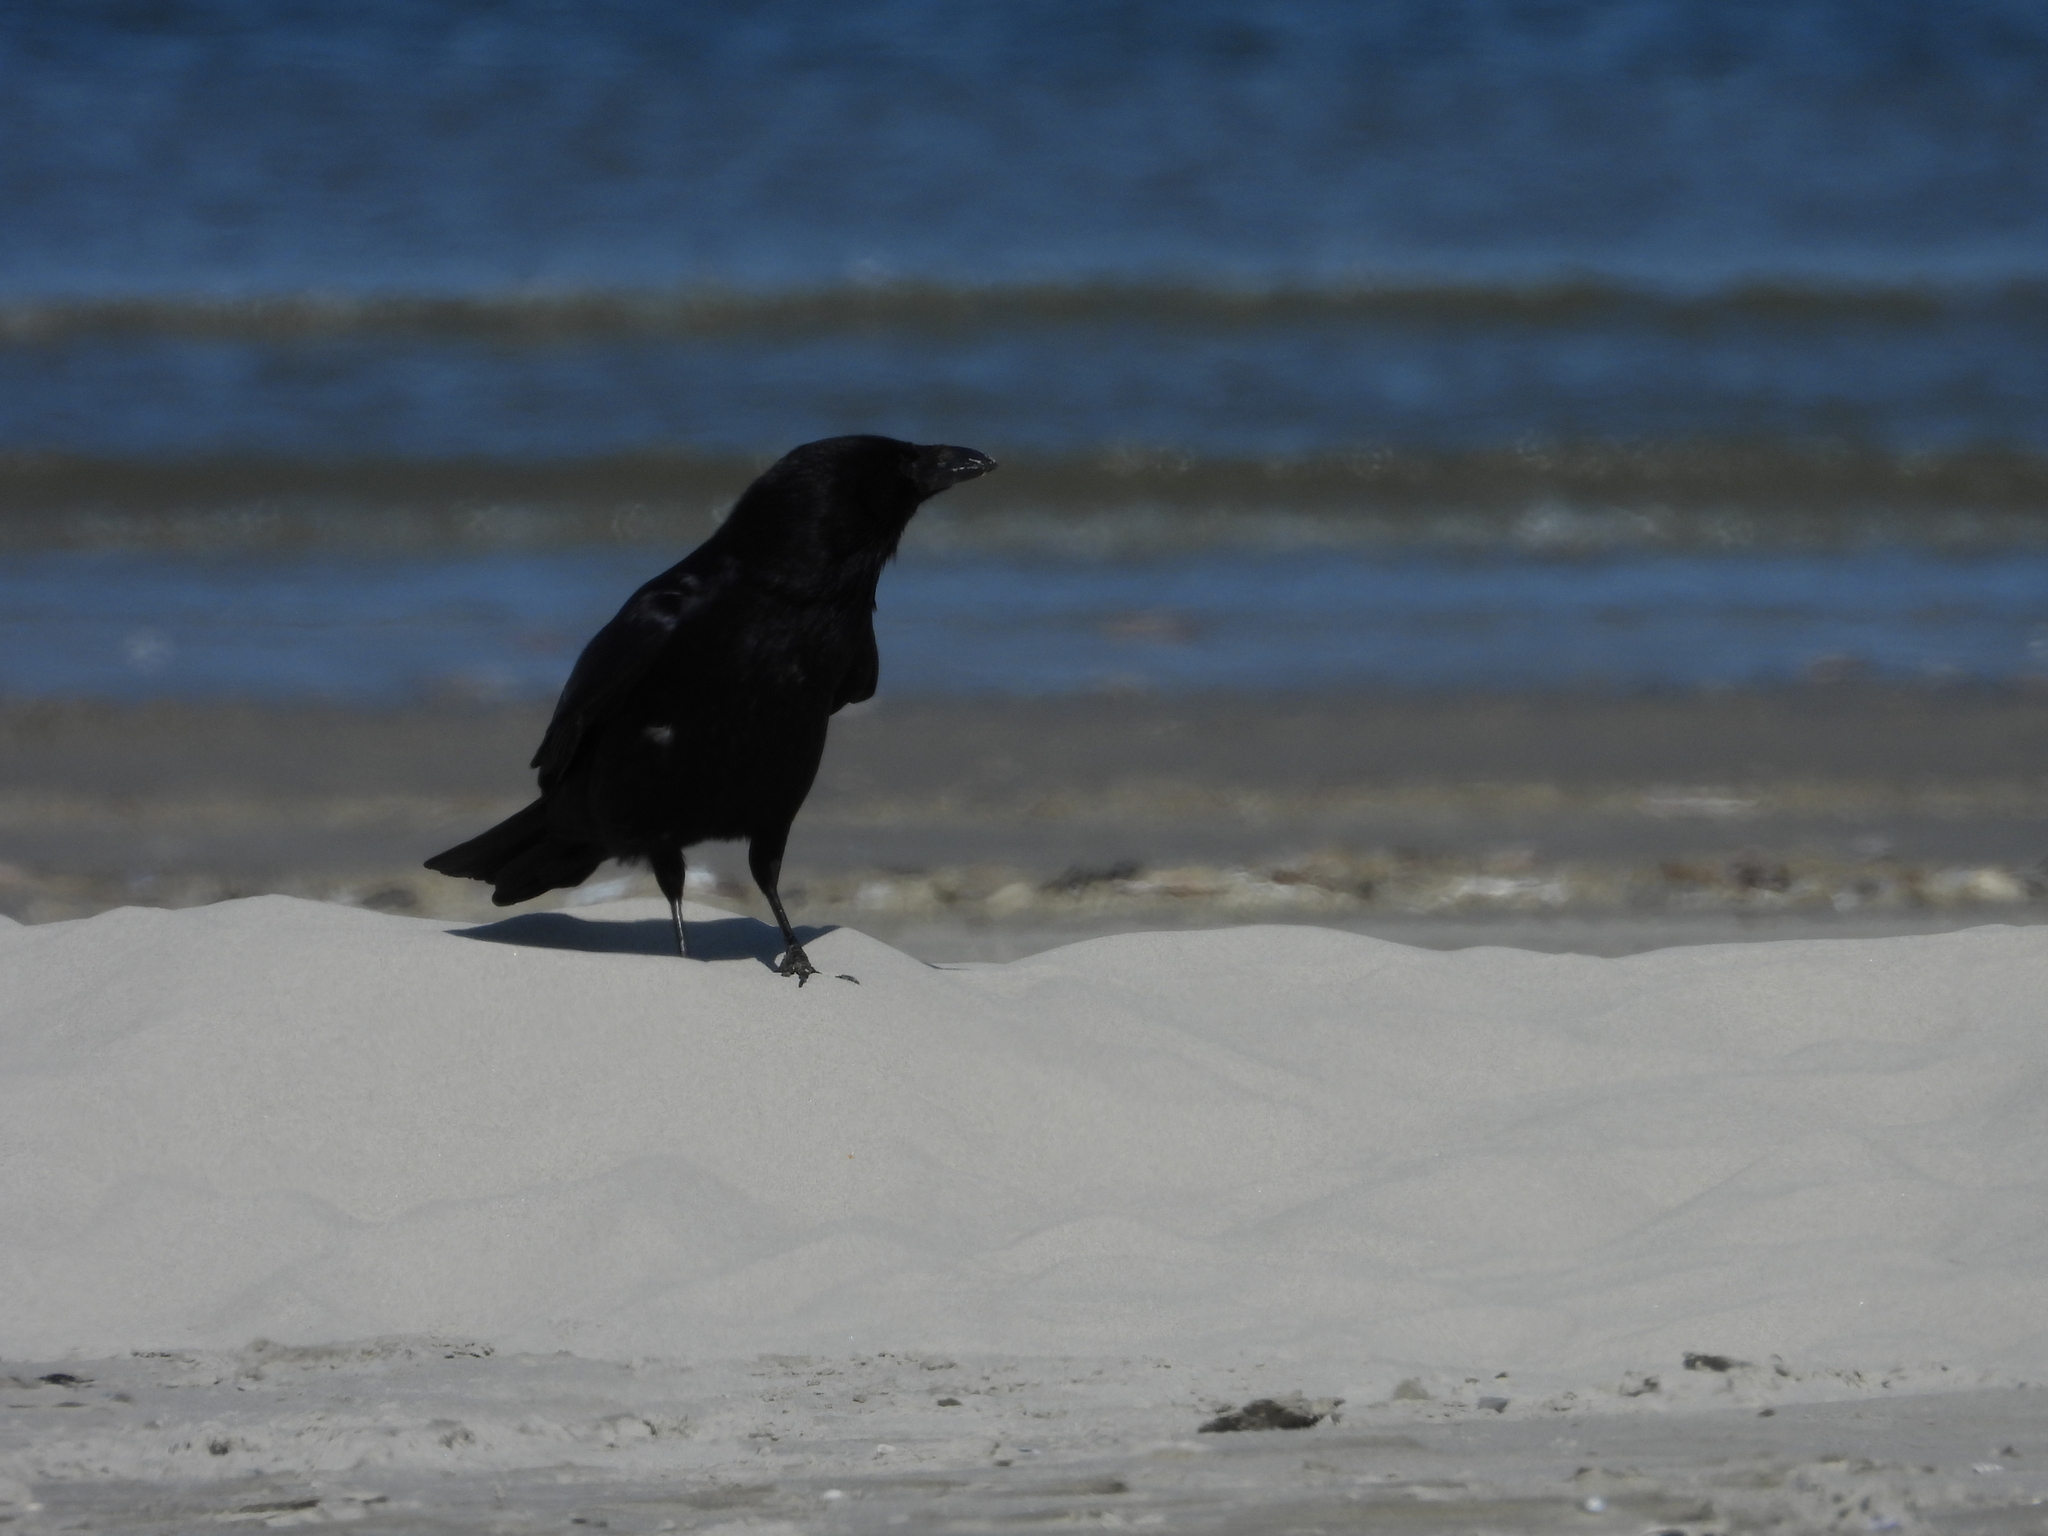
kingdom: Animalia
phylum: Chordata
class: Aves
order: Passeriformes
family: Corvidae
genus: Corvus
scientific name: Corvus corone
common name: Carrion crow
